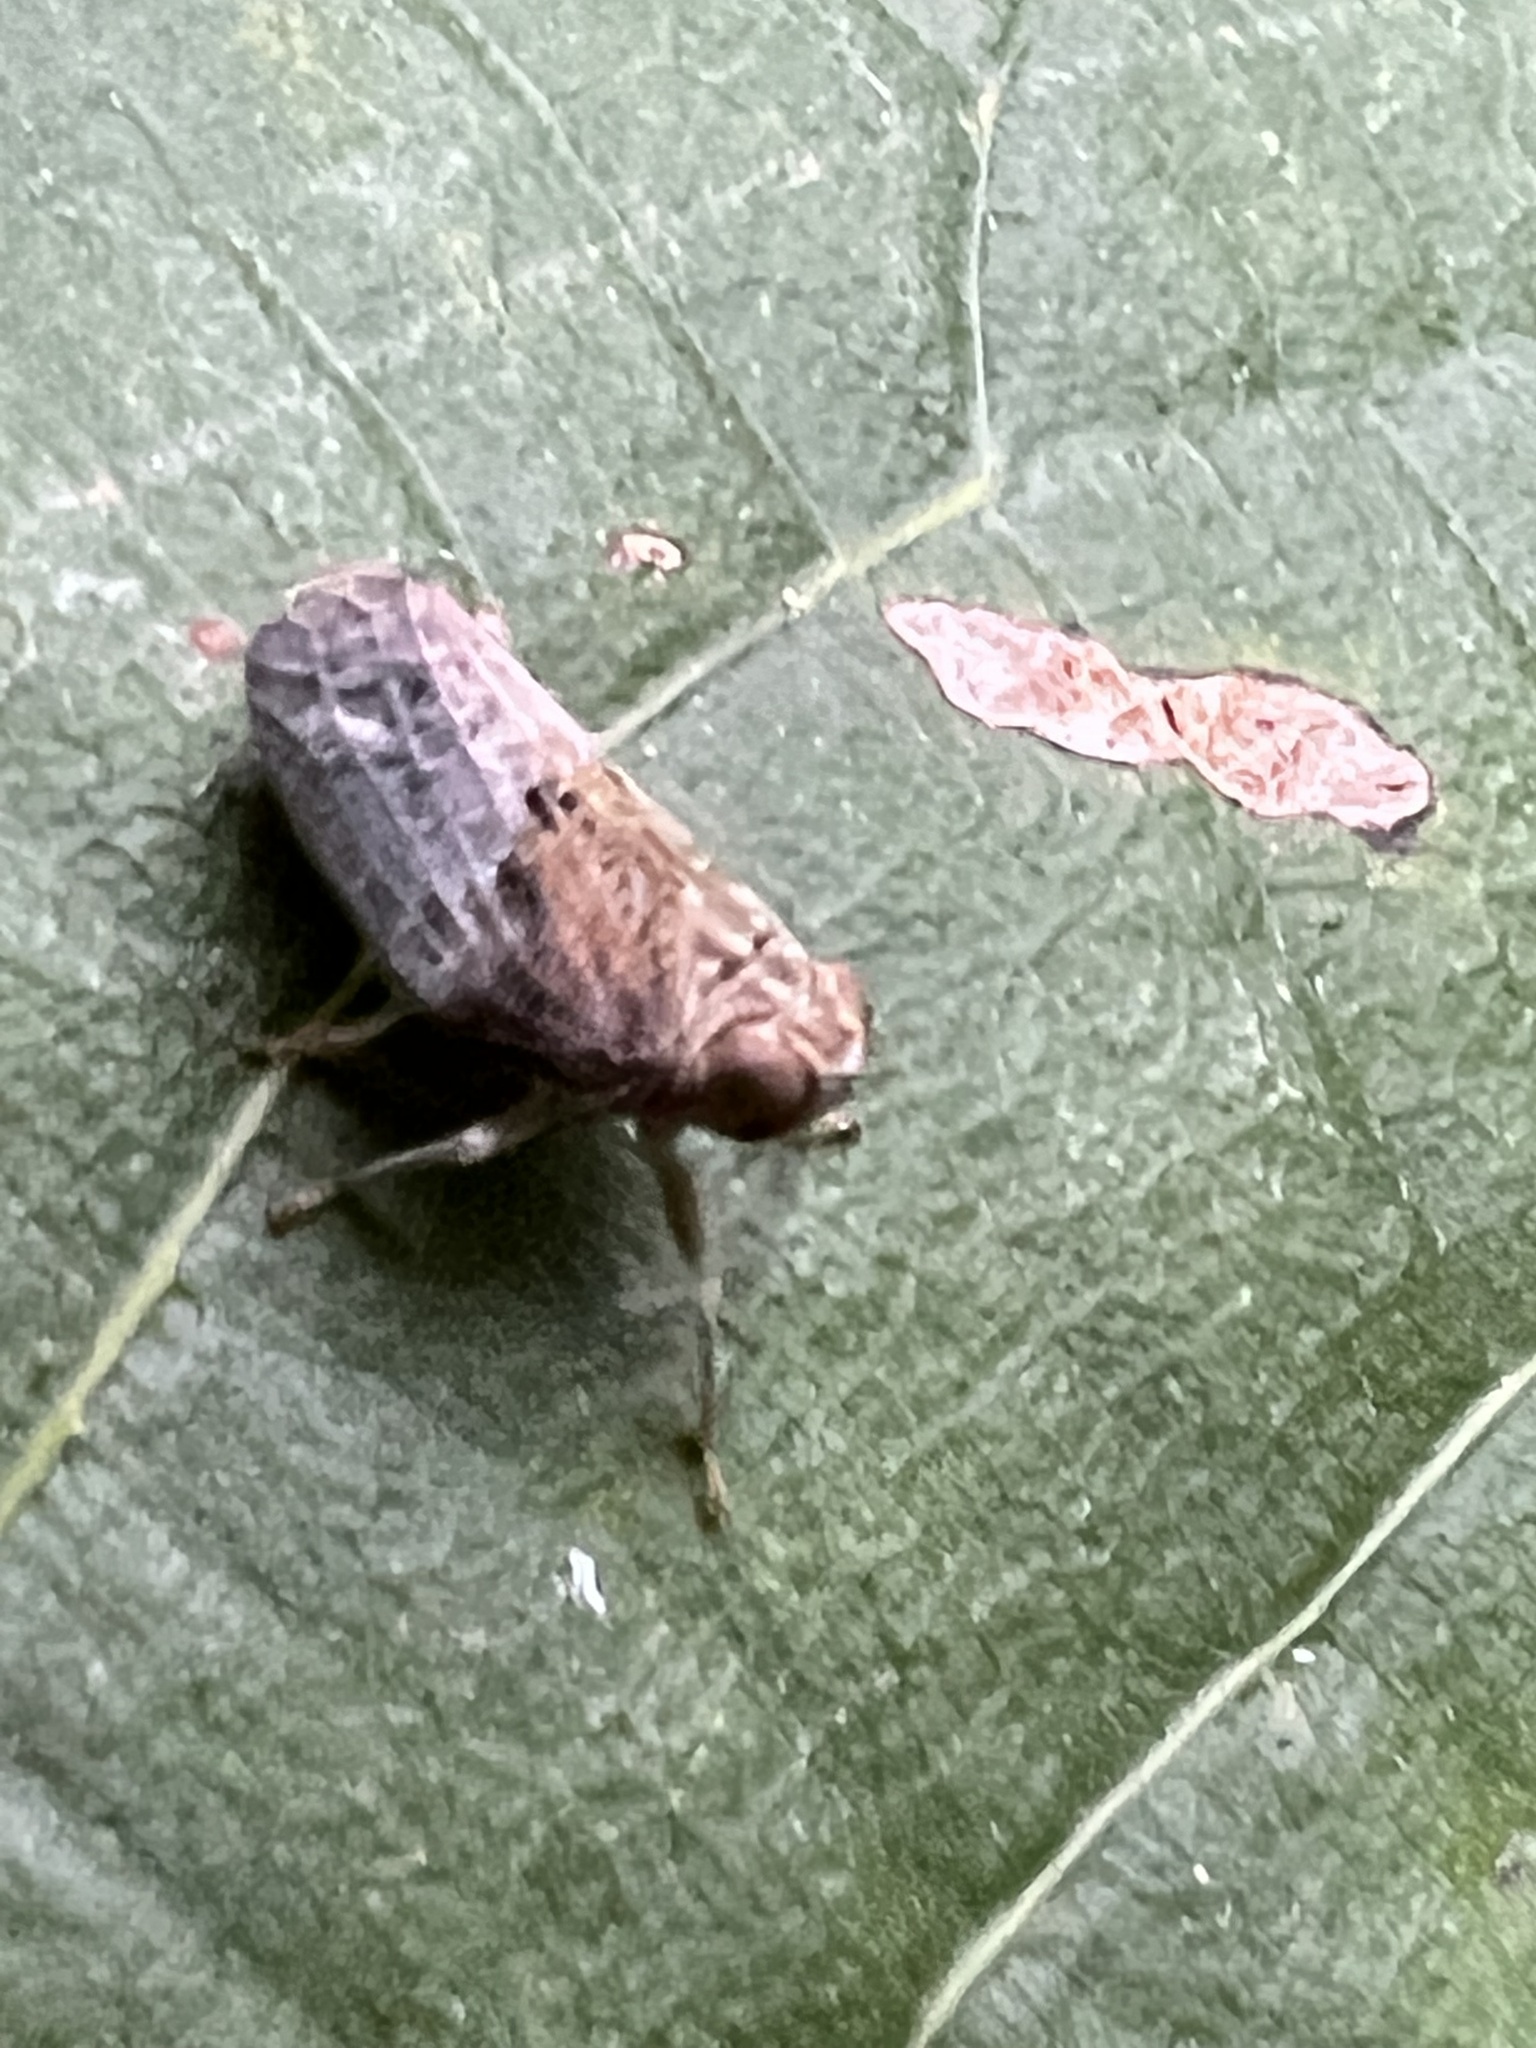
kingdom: Animalia
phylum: Arthropoda
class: Insecta
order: Hemiptera
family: Issidae
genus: Thionia
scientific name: Thionia bullata
